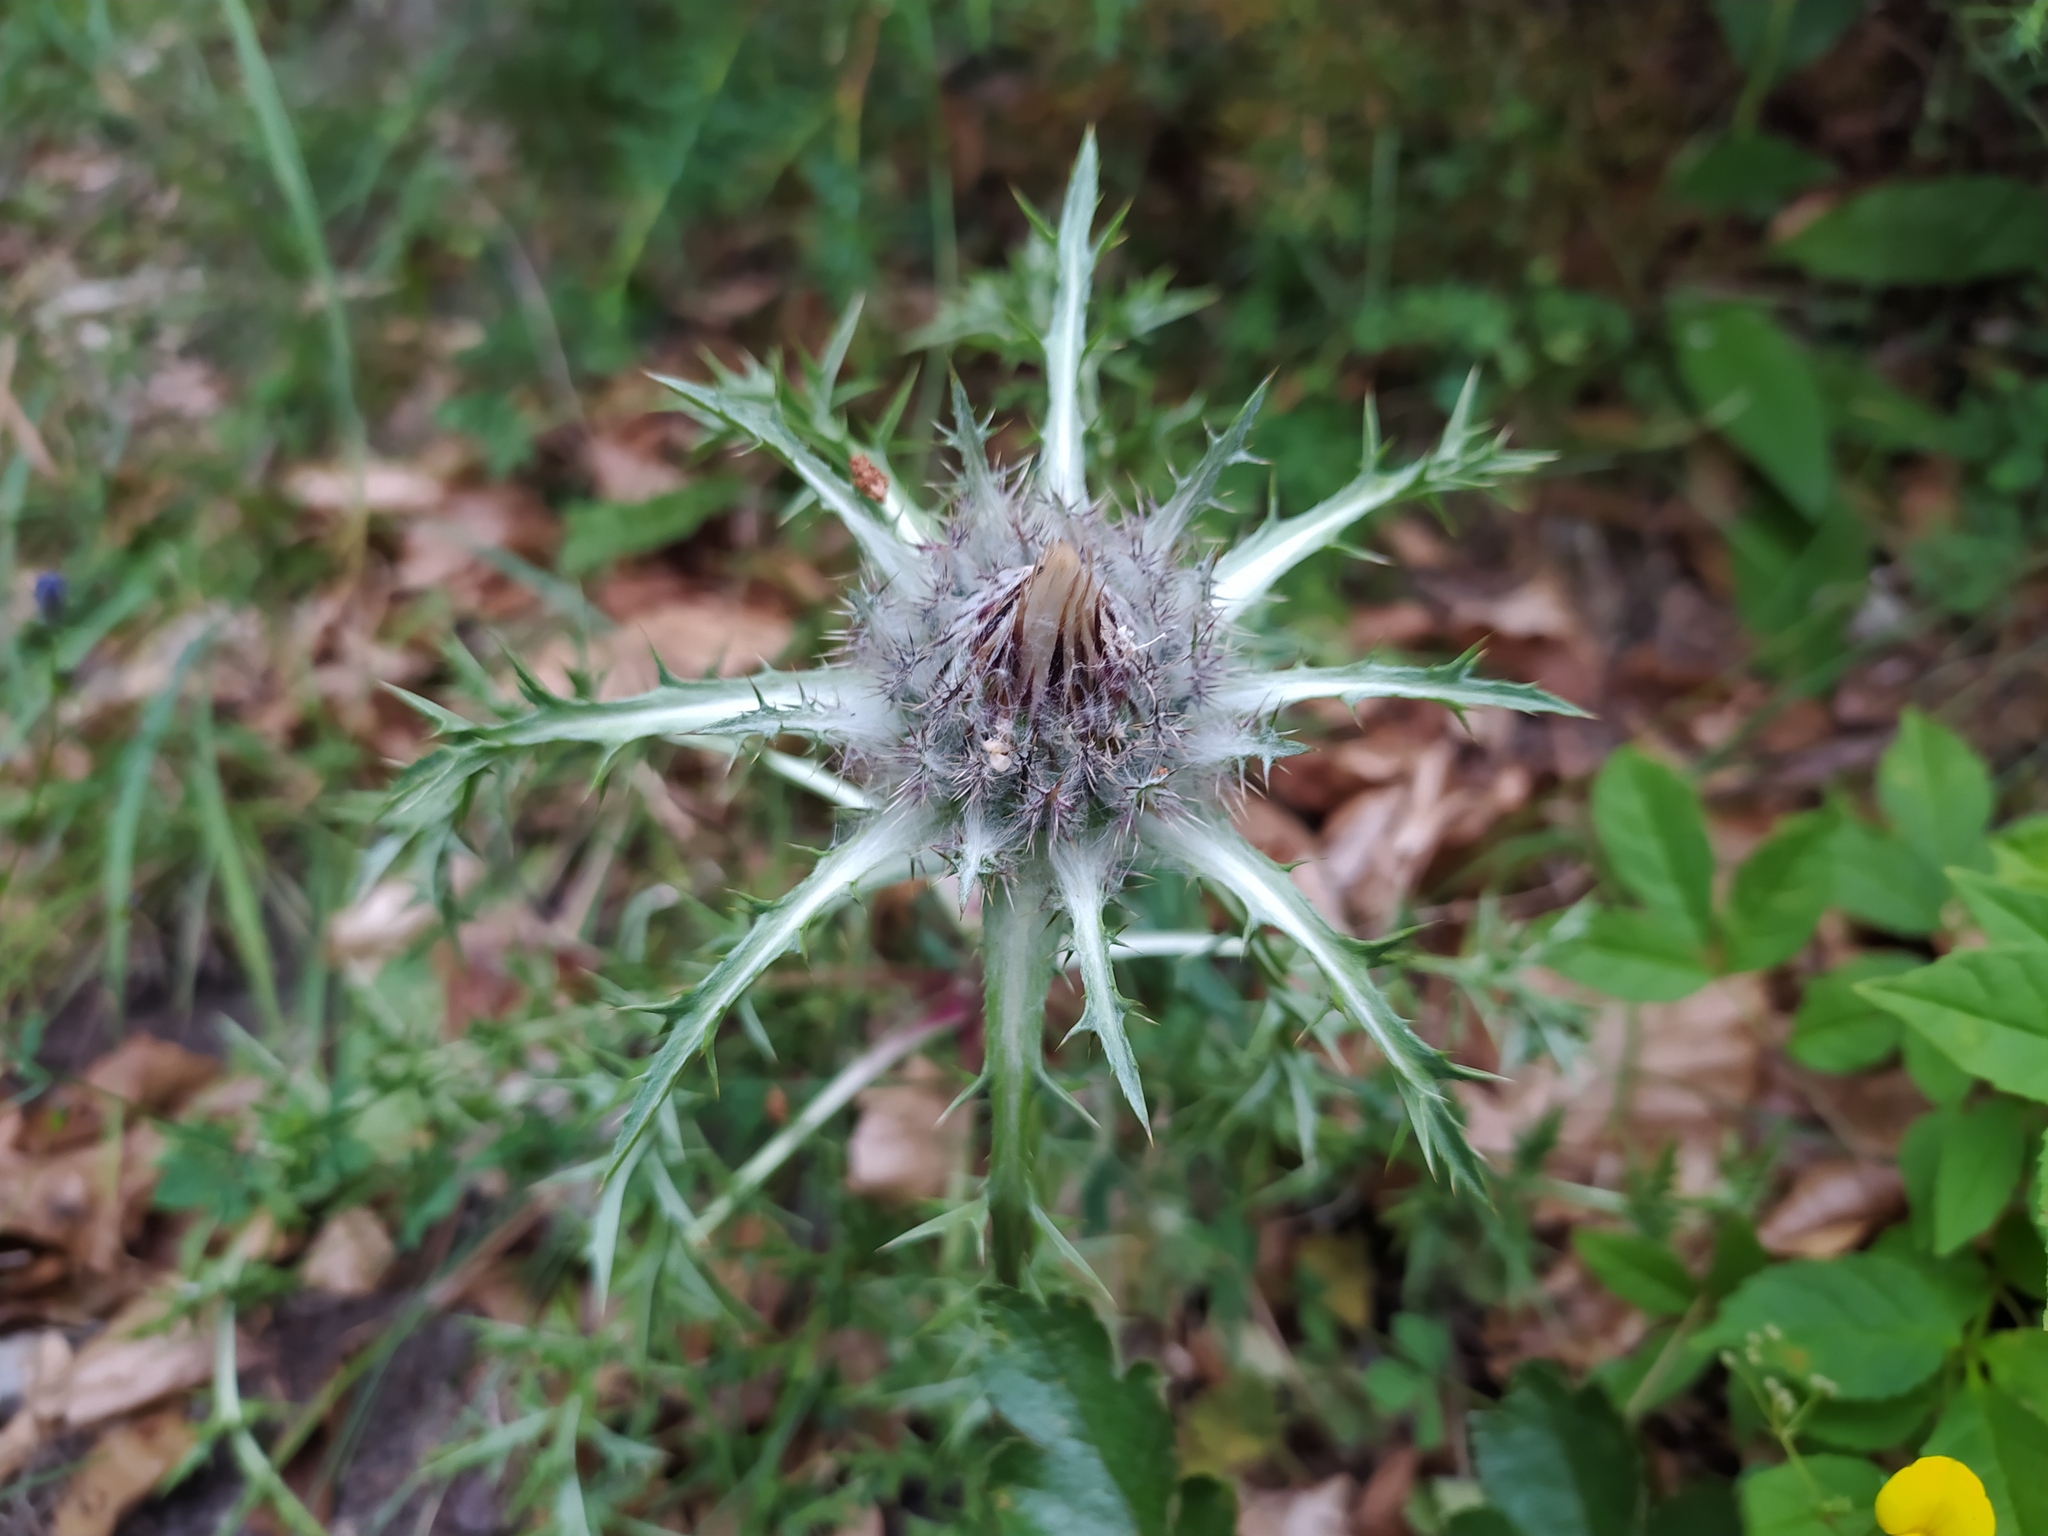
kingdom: Plantae
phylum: Tracheophyta
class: Magnoliopsida
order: Asterales
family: Asteraceae
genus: Carlina
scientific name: Carlina acaulis
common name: Stemless carline thistle
